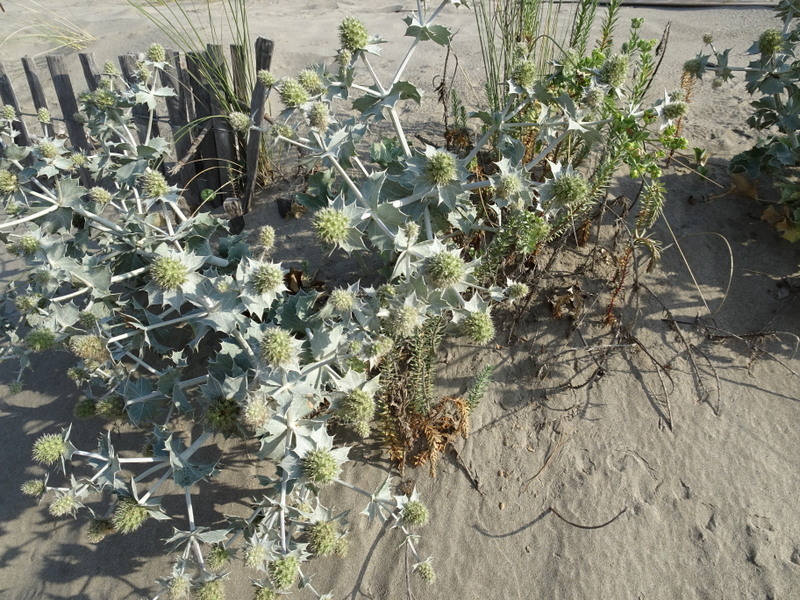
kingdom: Plantae
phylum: Tracheophyta
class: Magnoliopsida
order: Apiales
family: Apiaceae
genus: Eryngium
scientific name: Eryngium maritimum
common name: Sea-holly
